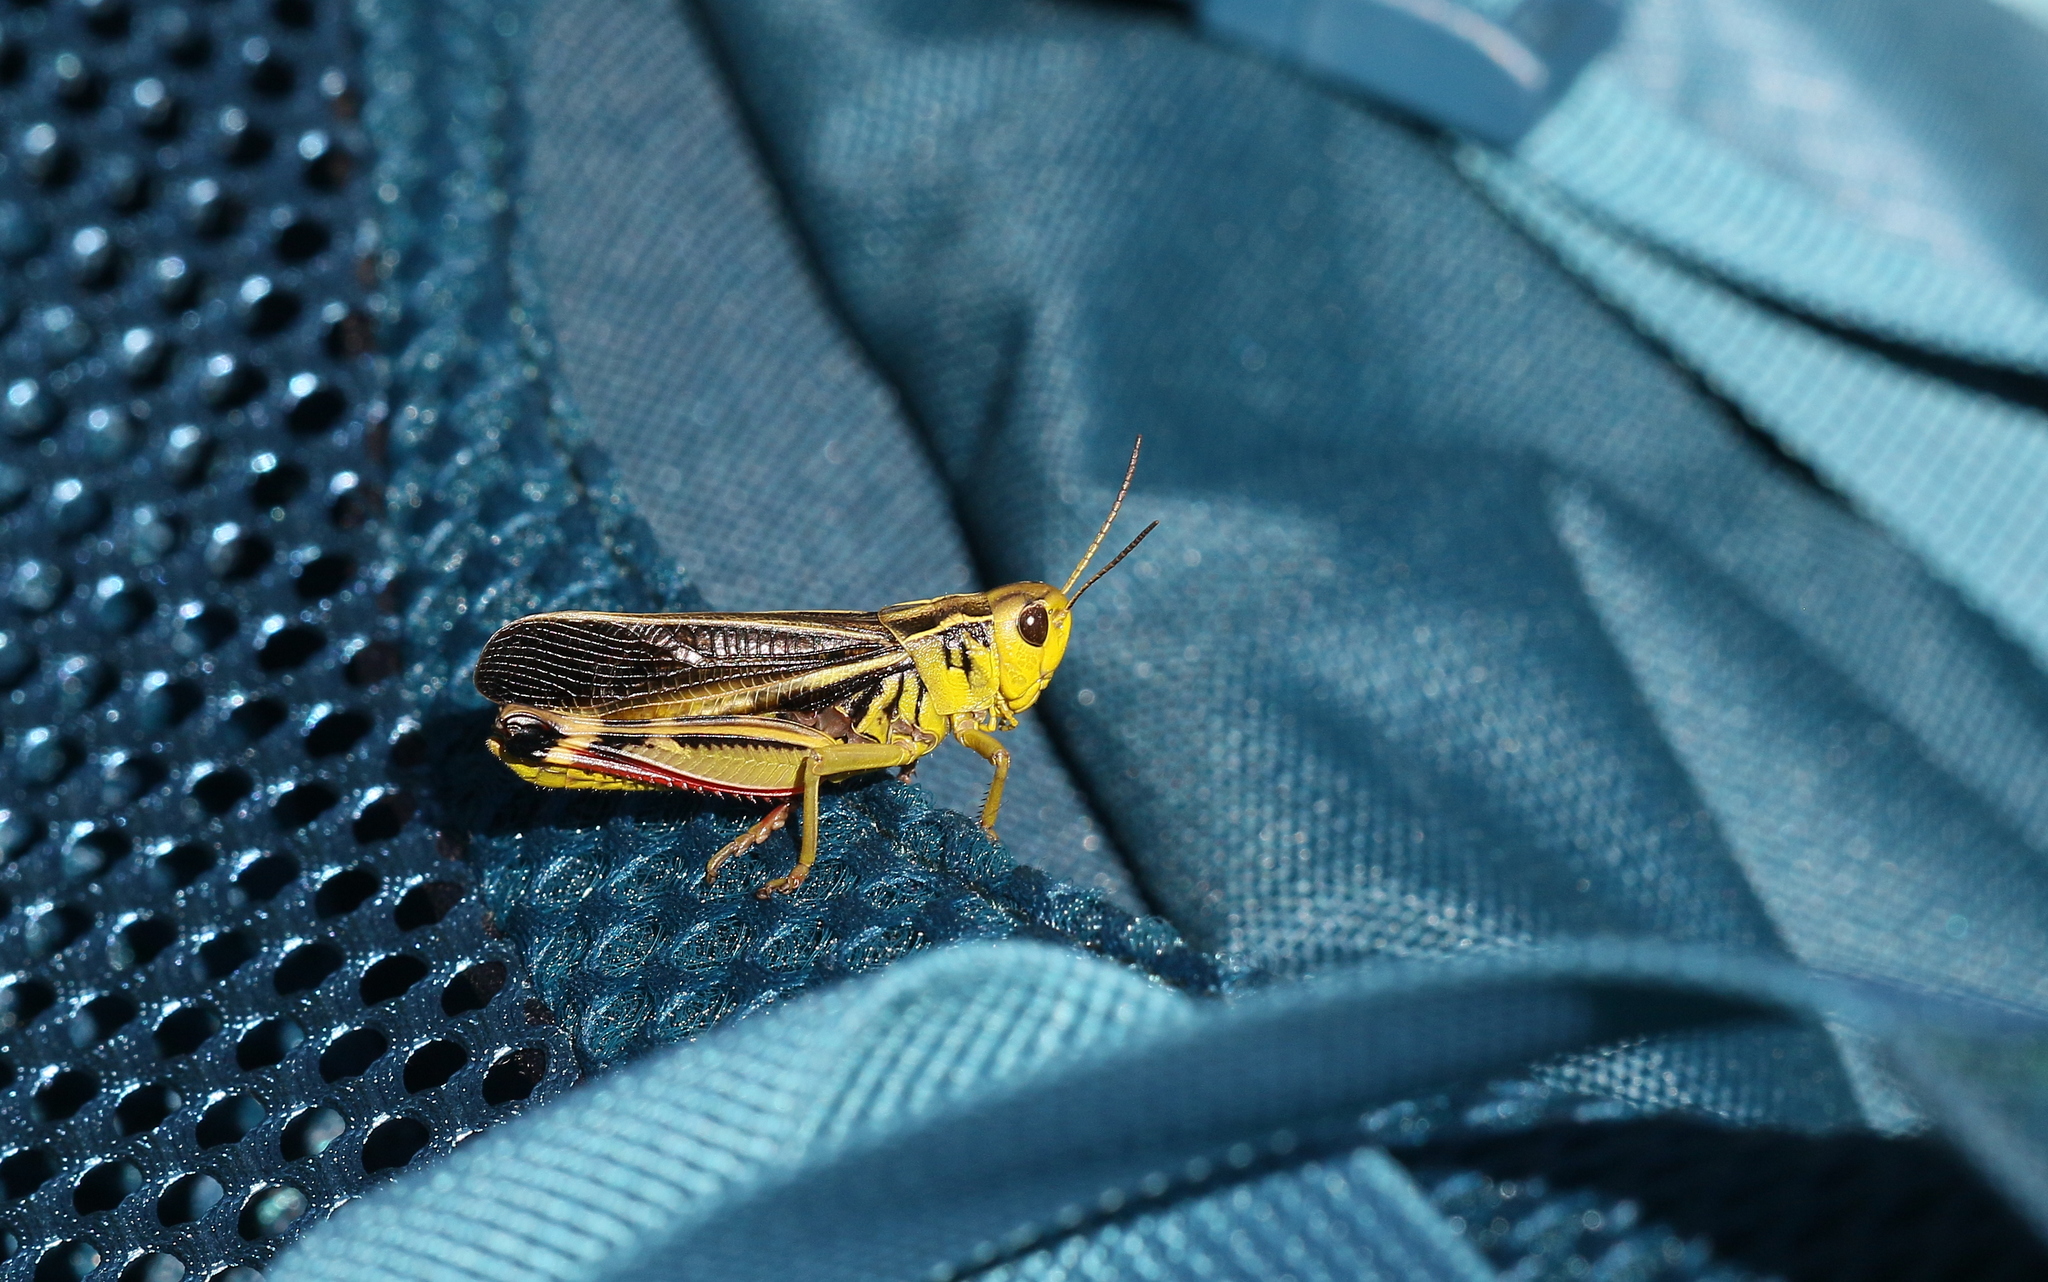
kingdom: Animalia
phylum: Arthropoda
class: Insecta
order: Orthoptera
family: Acrididae
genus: Arcyptera
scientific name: Arcyptera fusca
